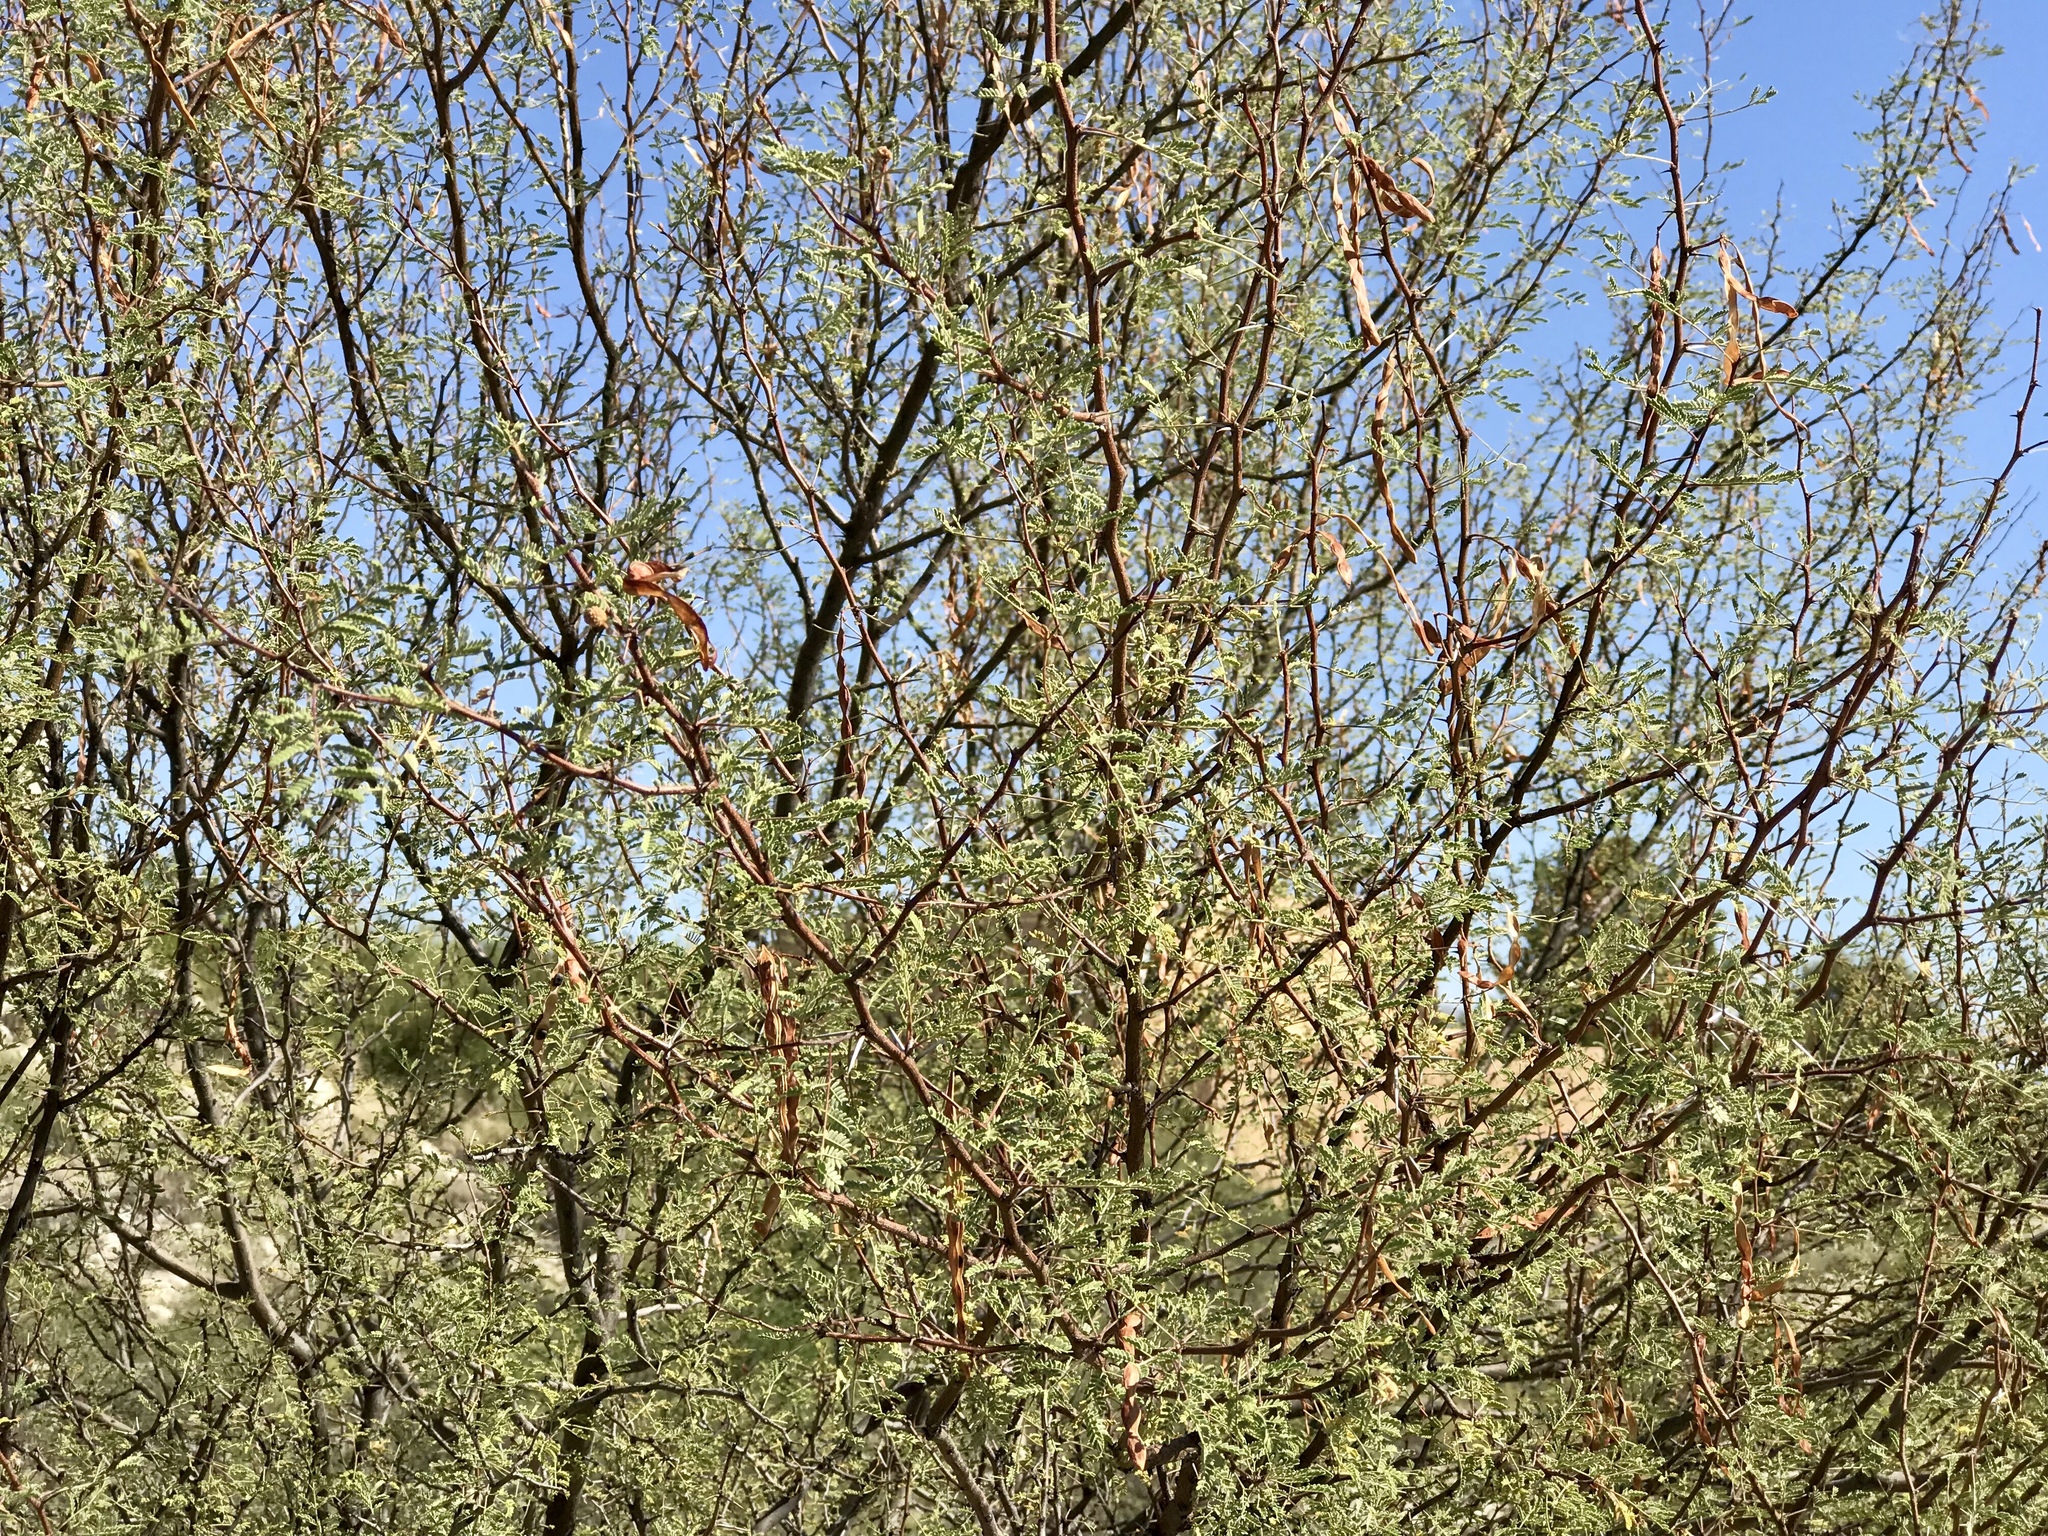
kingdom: Plantae
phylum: Tracheophyta
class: Magnoliopsida
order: Fabales
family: Fabaceae
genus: Vachellia
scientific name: Vachellia constricta
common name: Mescat acacia
